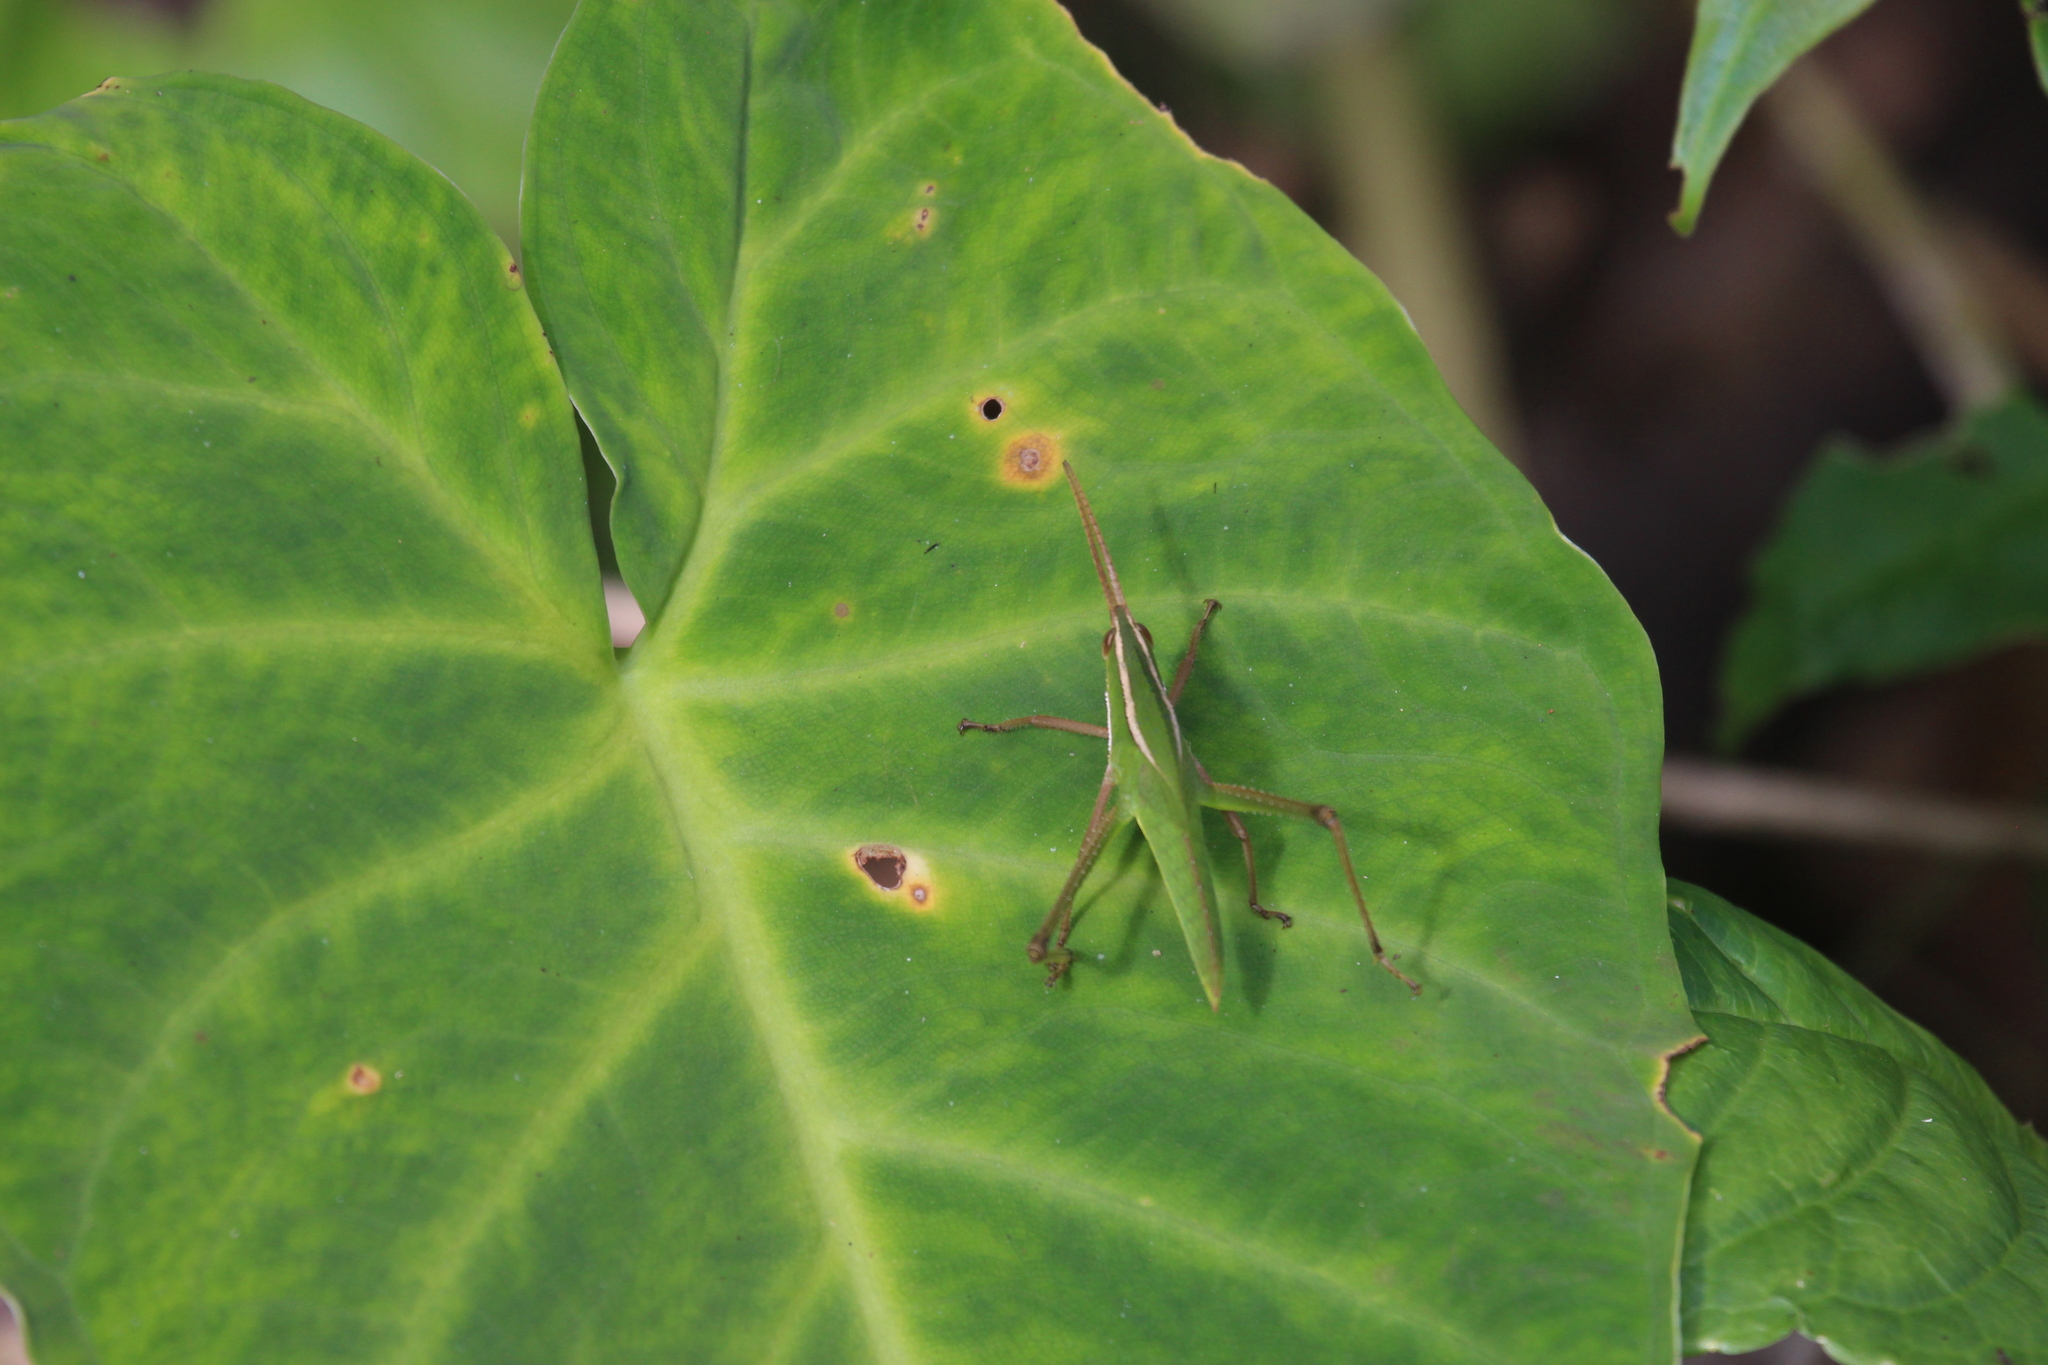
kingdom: Animalia
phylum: Arthropoda
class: Insecta
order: Orthoptera
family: Romaleidae
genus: Prionolopha
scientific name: Prionolopha serrata
